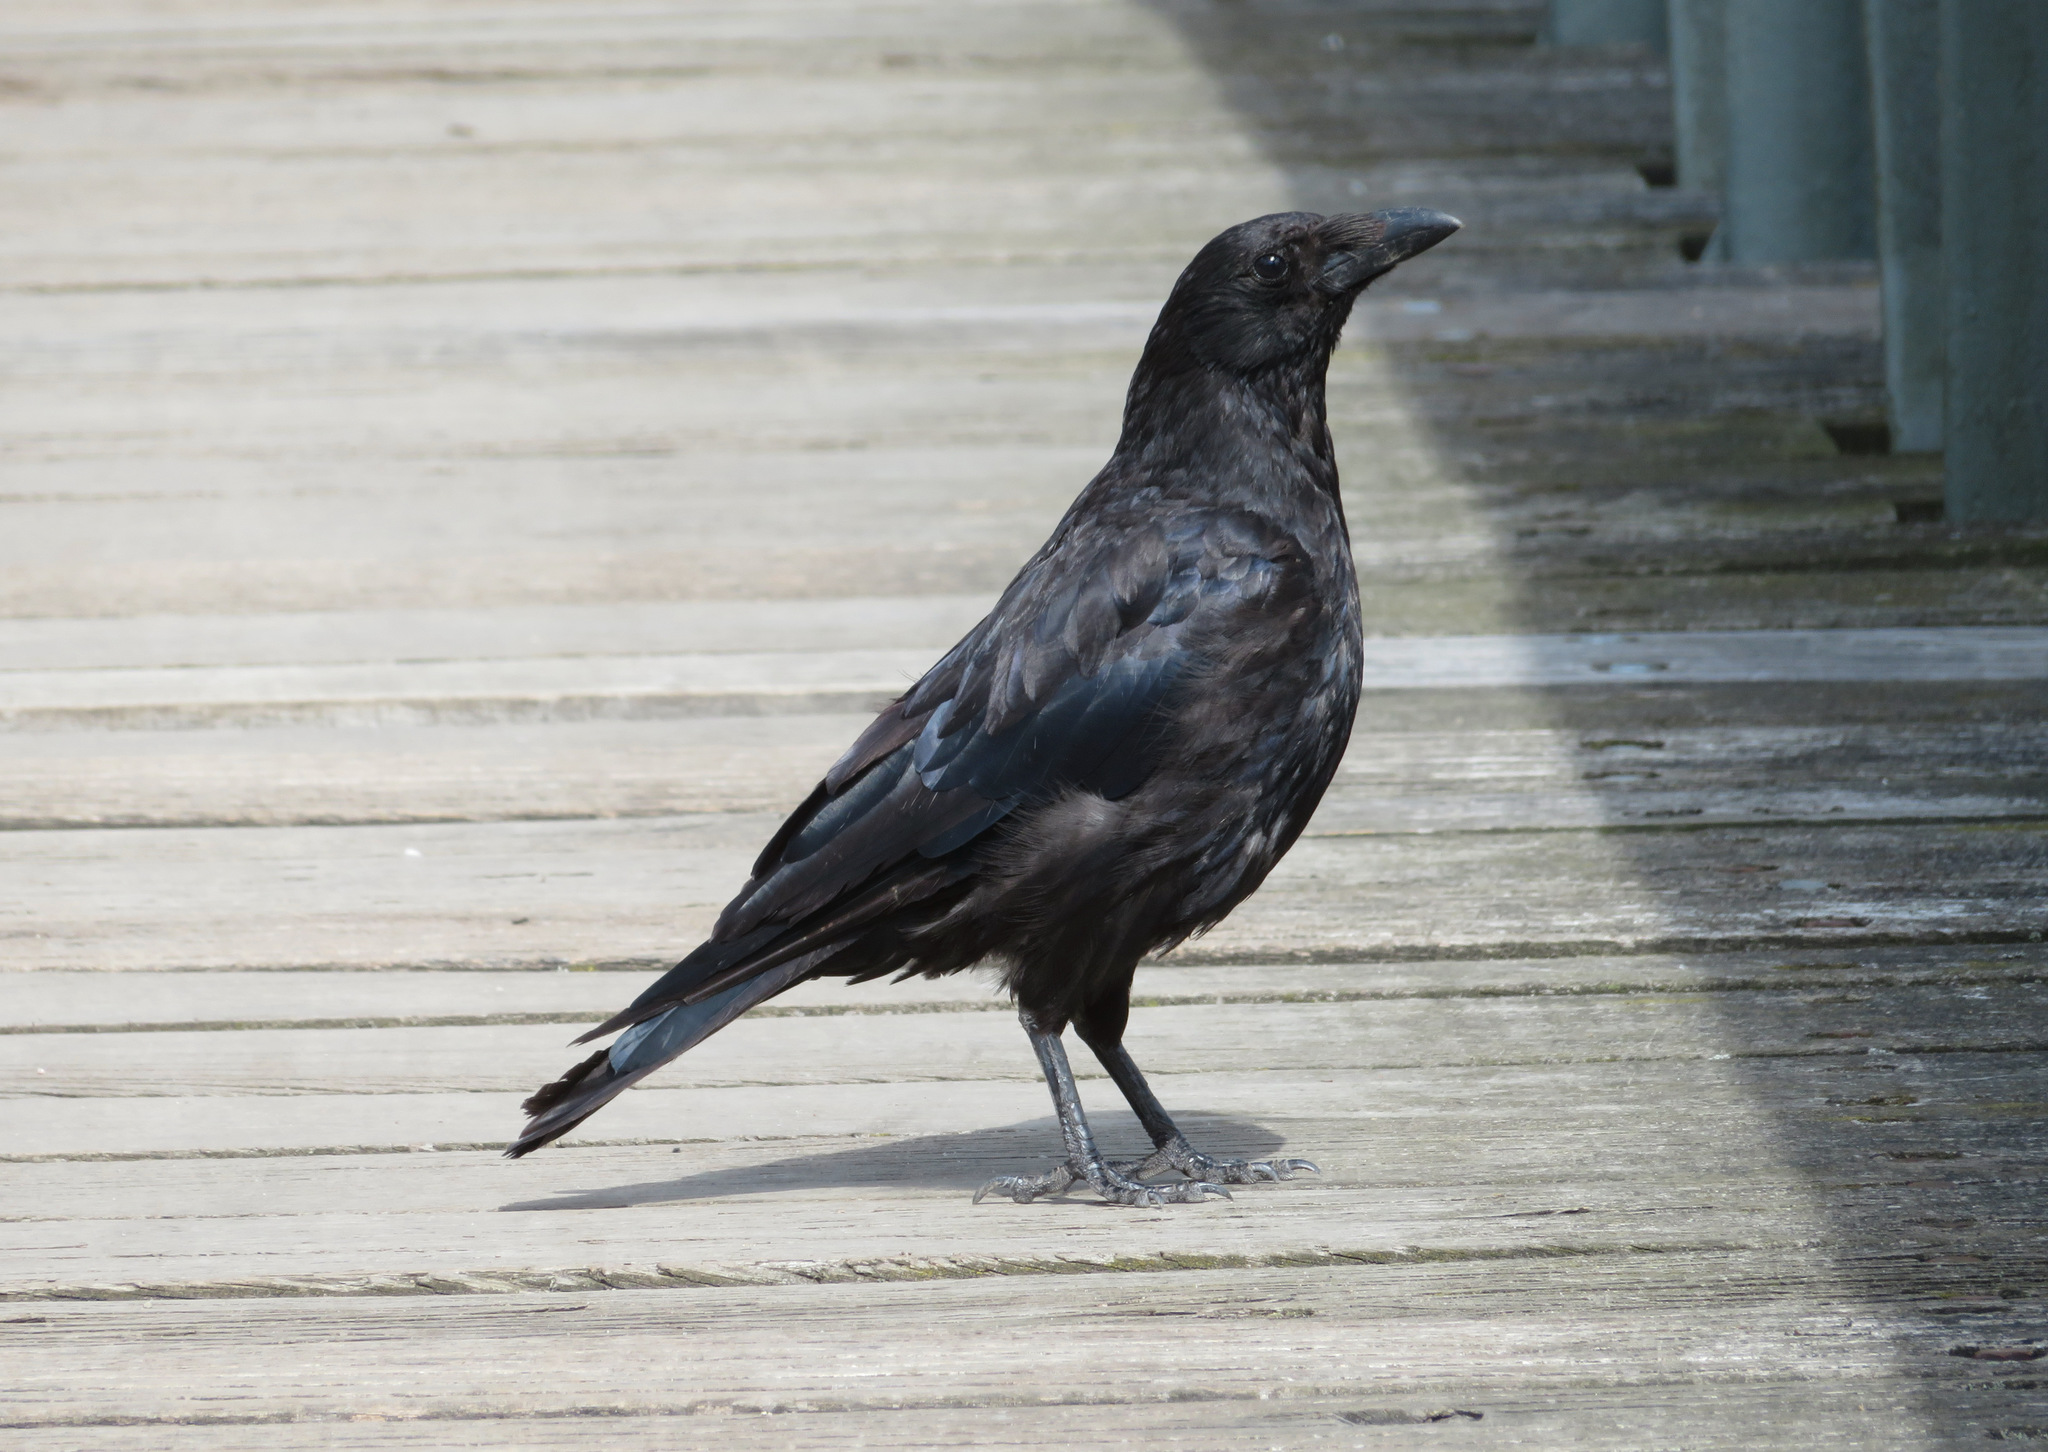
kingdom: Animalia
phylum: Chordata
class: Aves
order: Passeriformes
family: Corvidae
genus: Corvus
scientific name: Corvus corone
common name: Carrion crow
